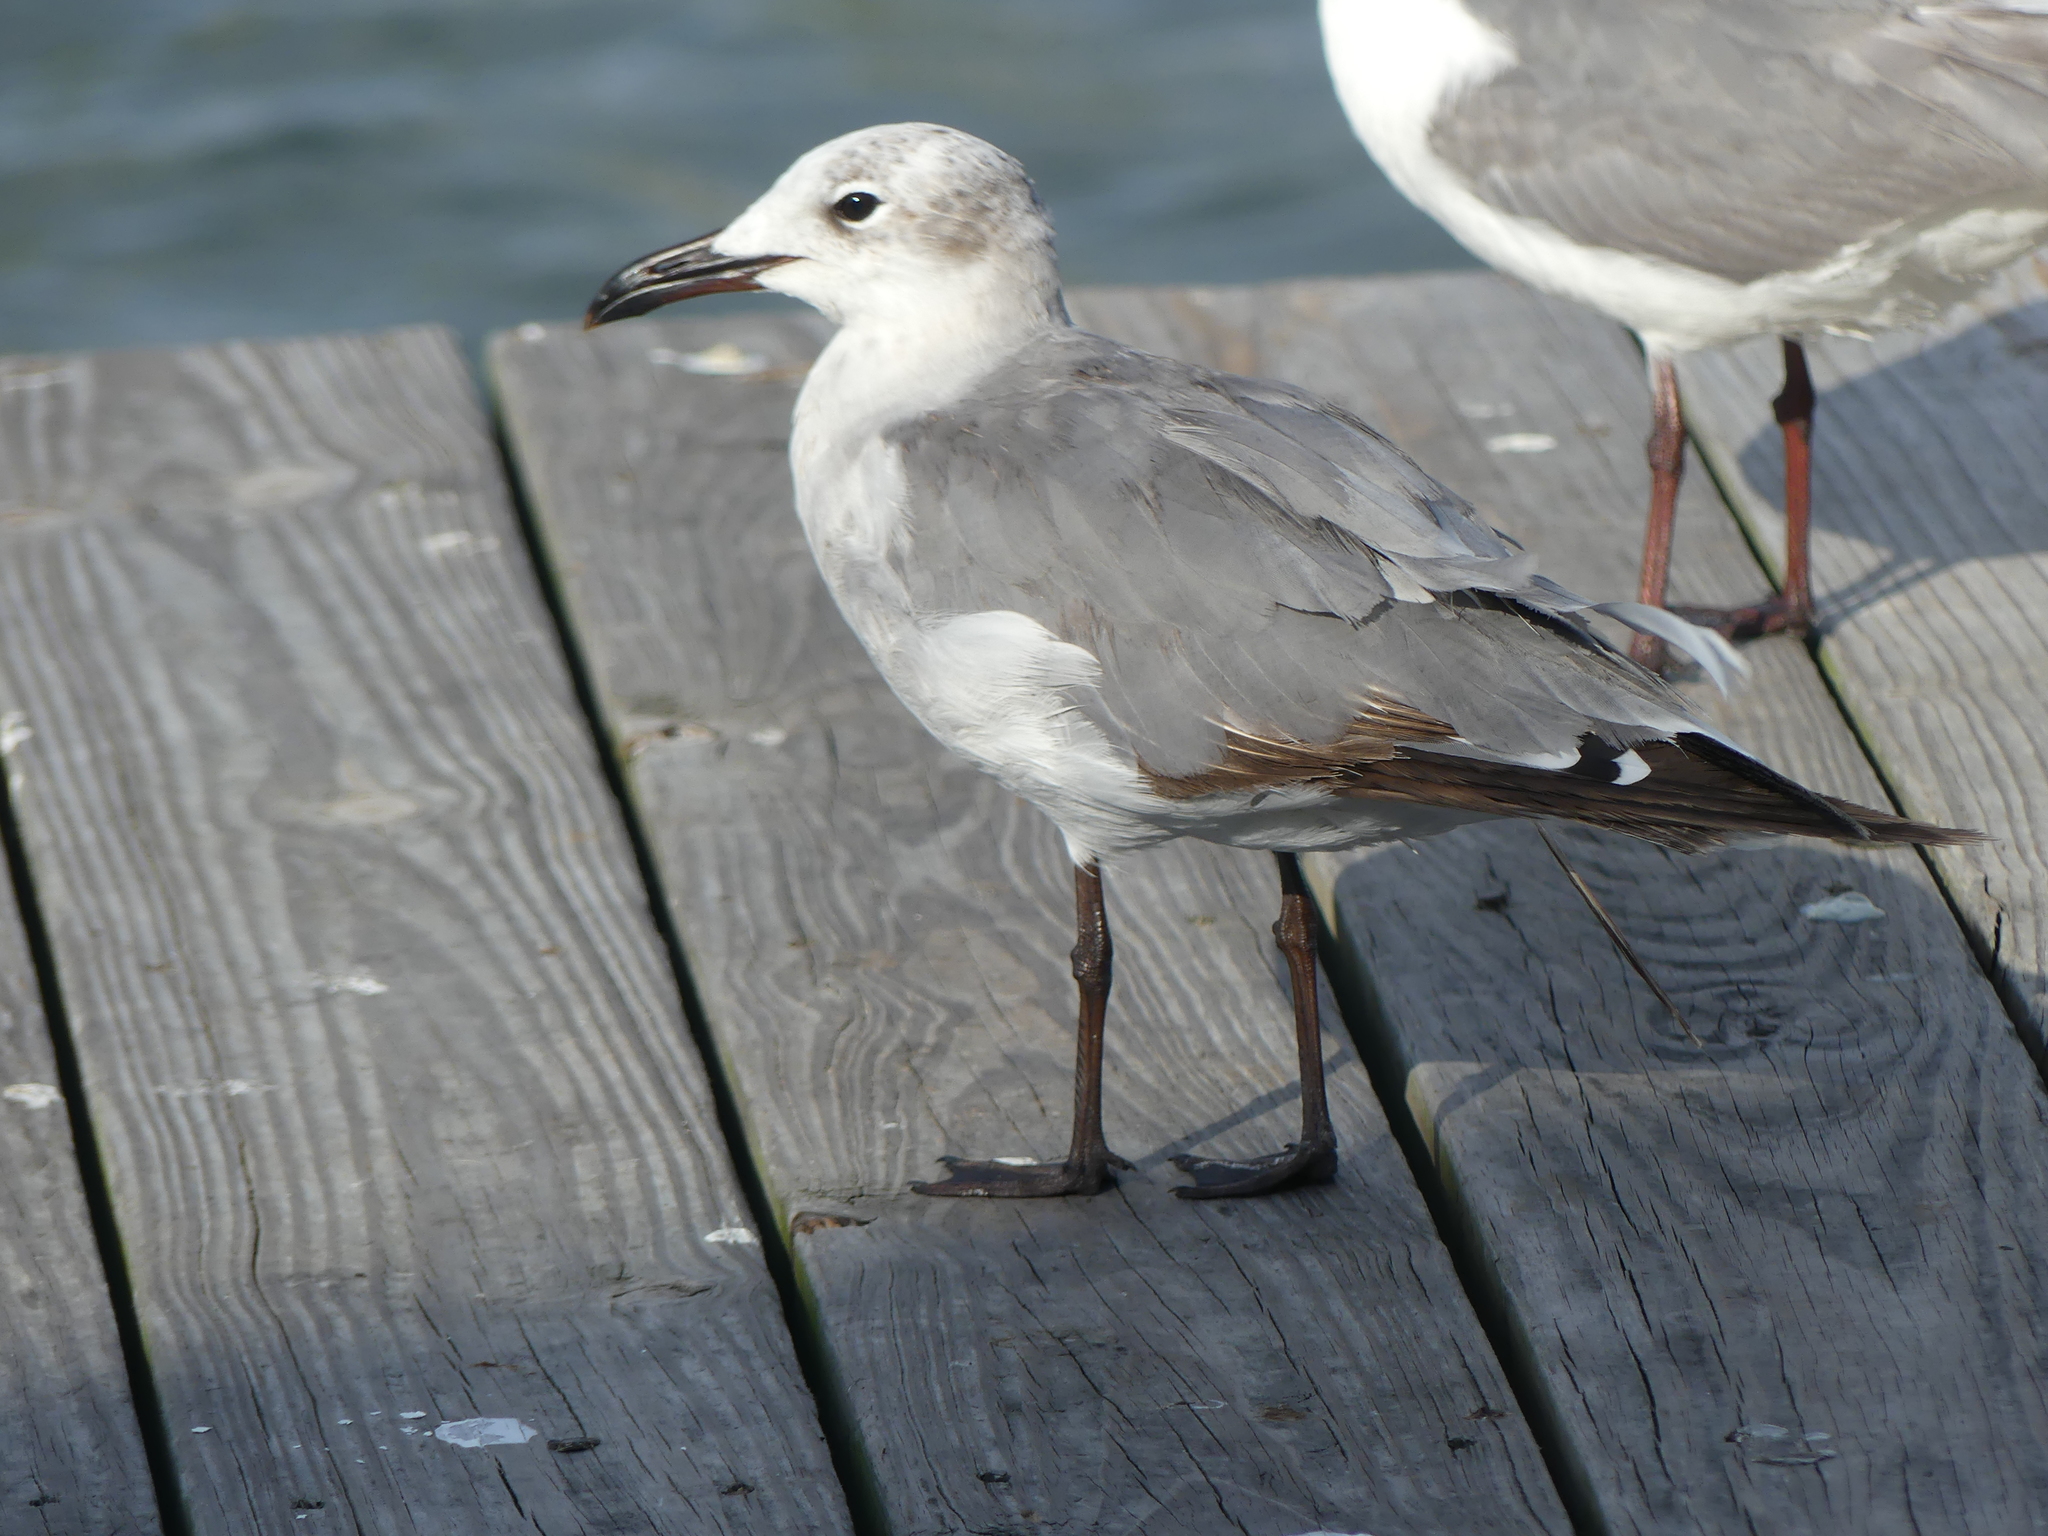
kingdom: Animalia
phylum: Chordata
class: Aves
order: Charadriiformes
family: Laridae
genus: Leucophaeus
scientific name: Leucophaeus atricilla
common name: Laughing gull
